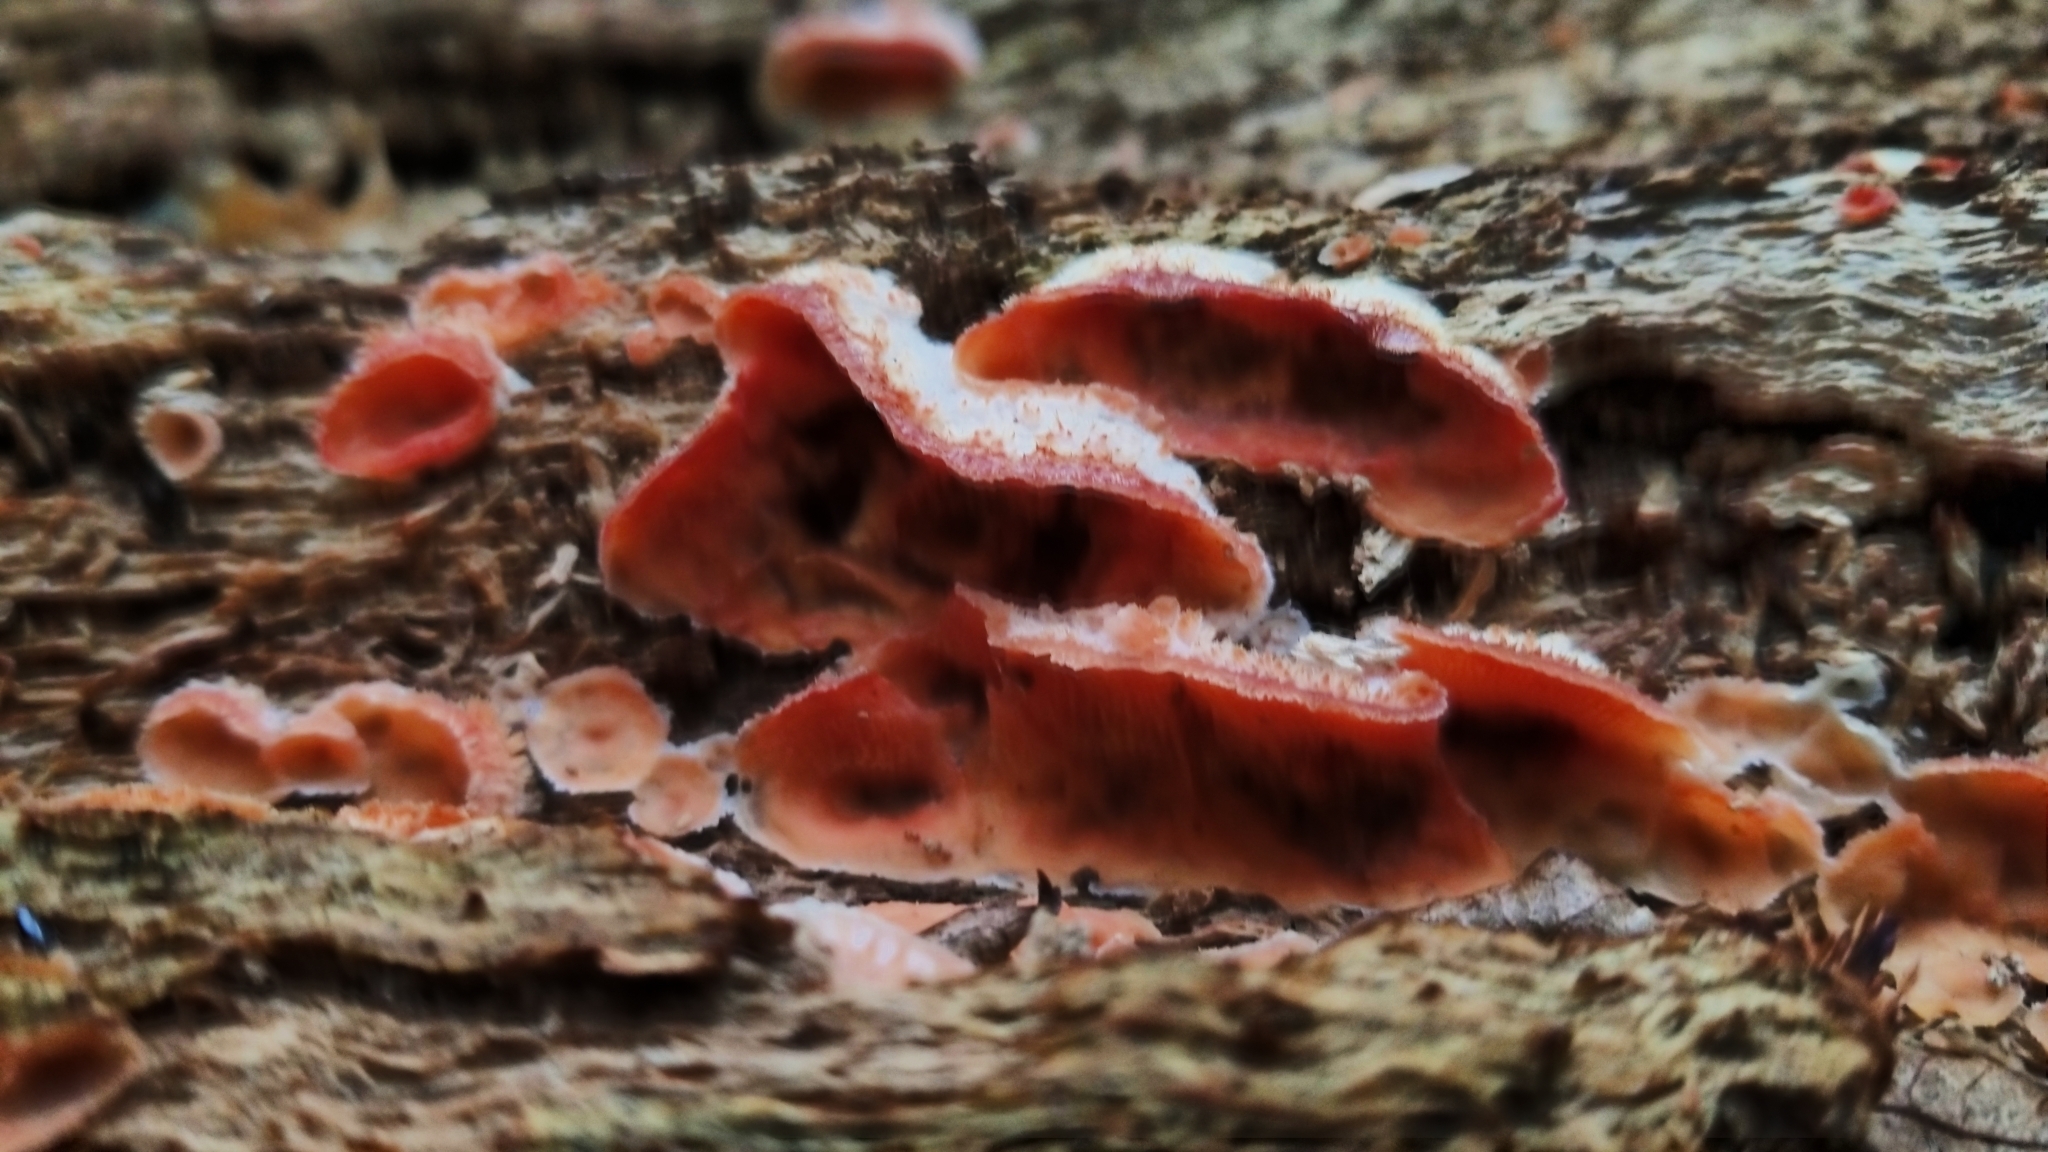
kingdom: Fungi
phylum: Basidiomycota
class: Agaricomycetes
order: Polyporales
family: Meruliaceae
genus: Phlebia
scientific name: Phlebia tremellosa
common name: Jelly rot
